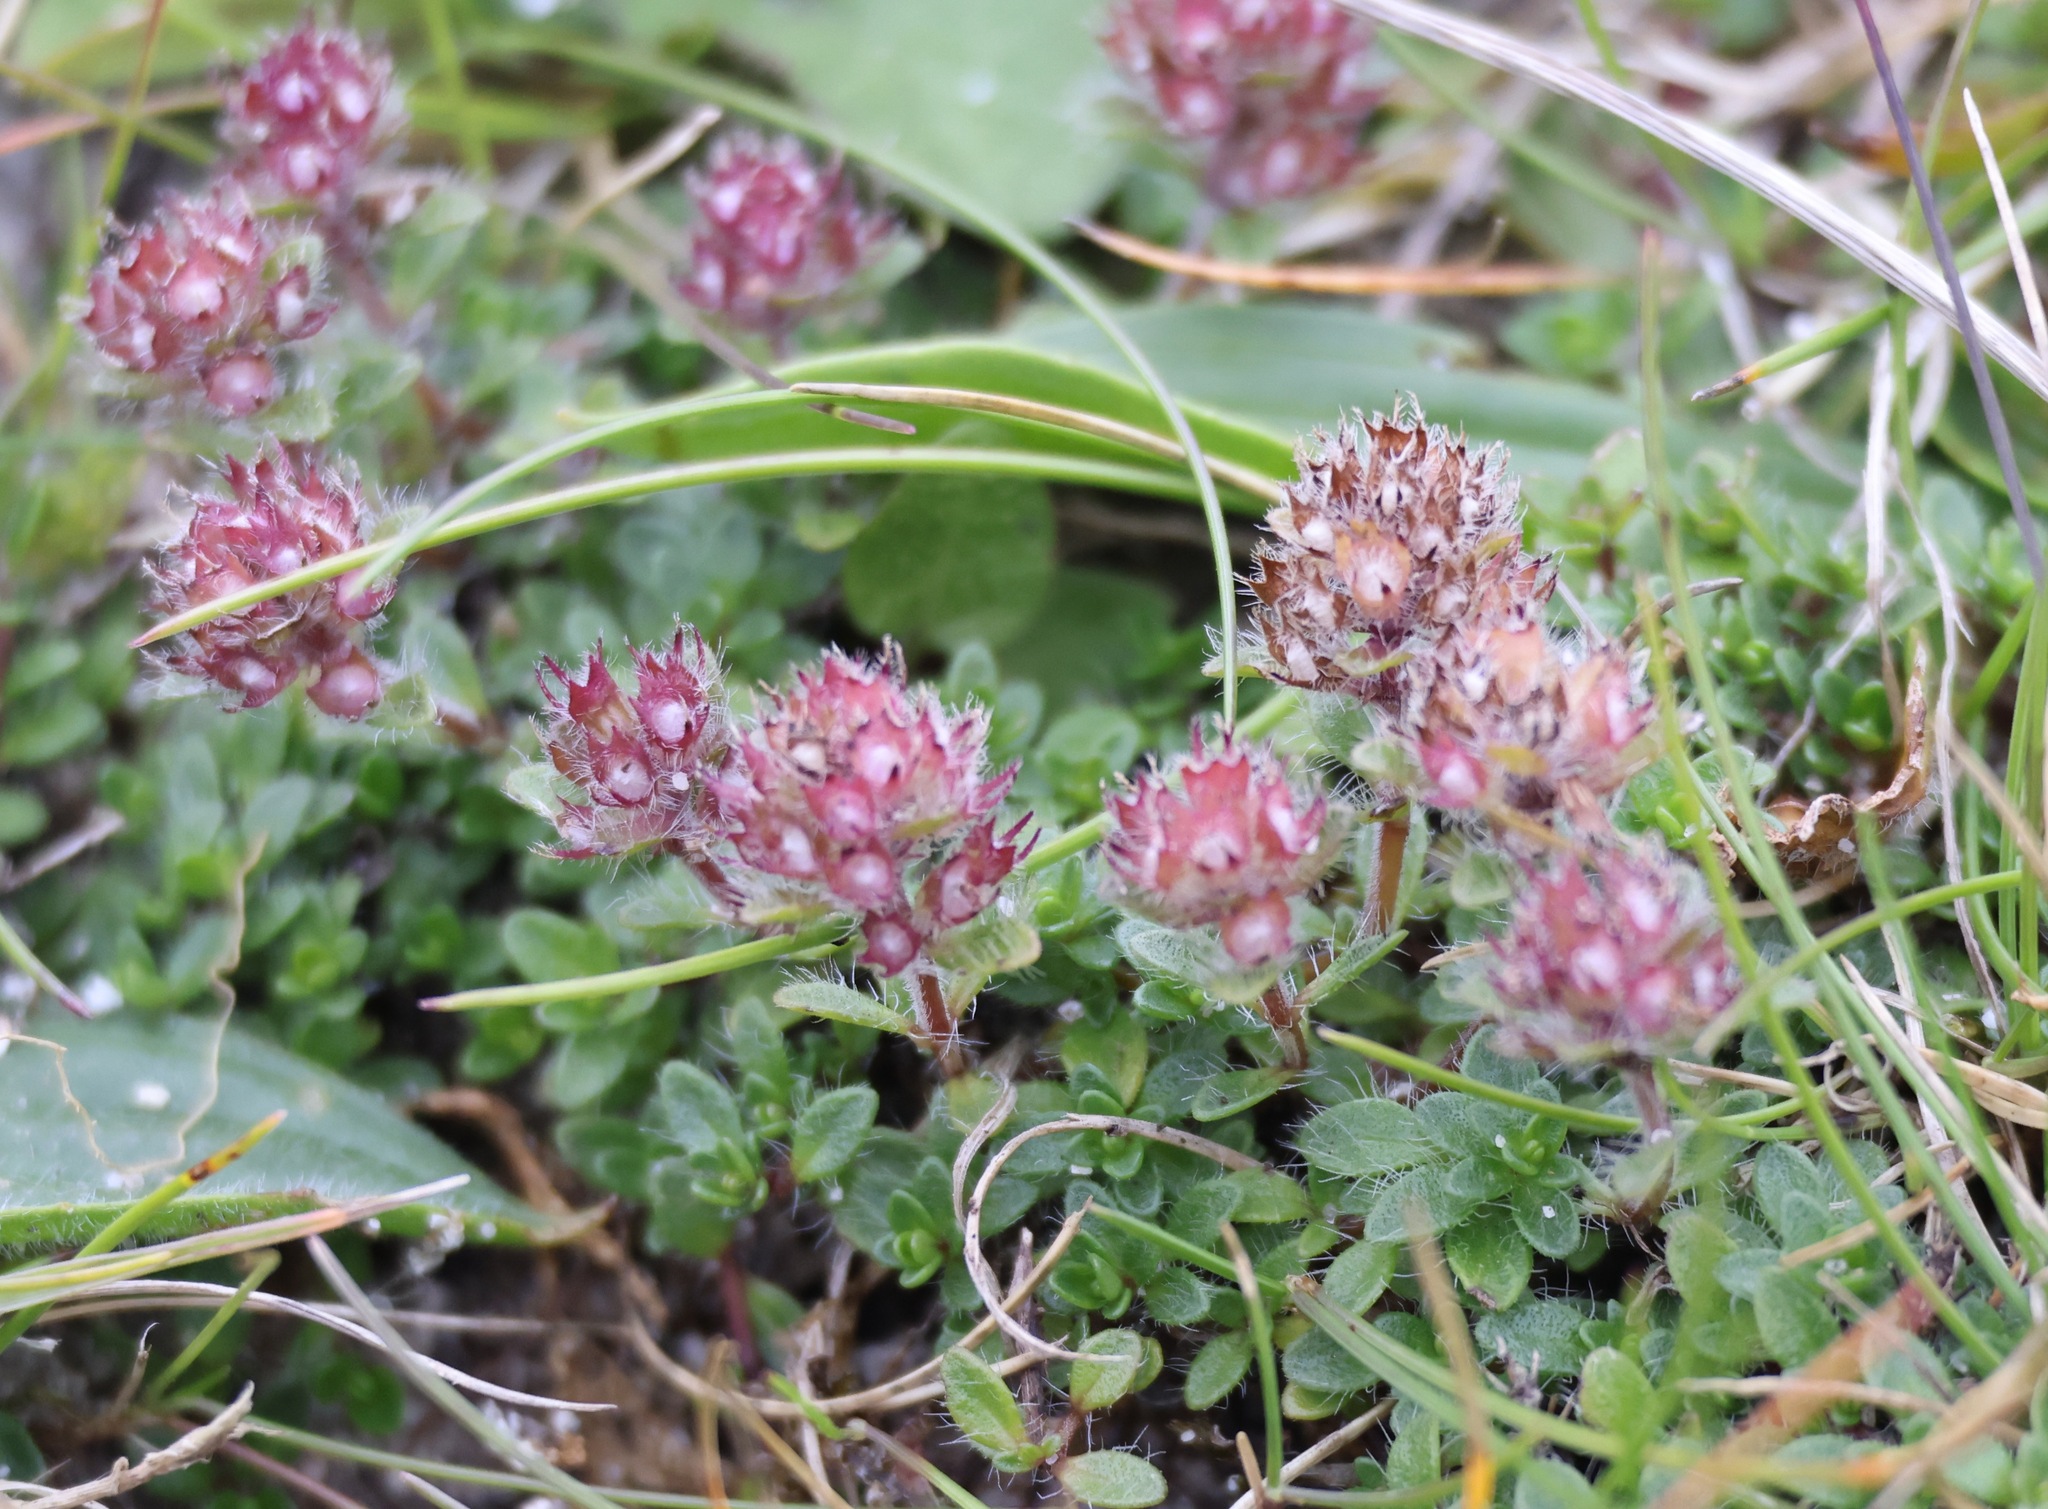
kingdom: Plantae
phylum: Tracheophyta
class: Magnoliopsida
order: Lamiales
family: Lamiaceae
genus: Thymus
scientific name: Thymus praecox
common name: Wild thyme
